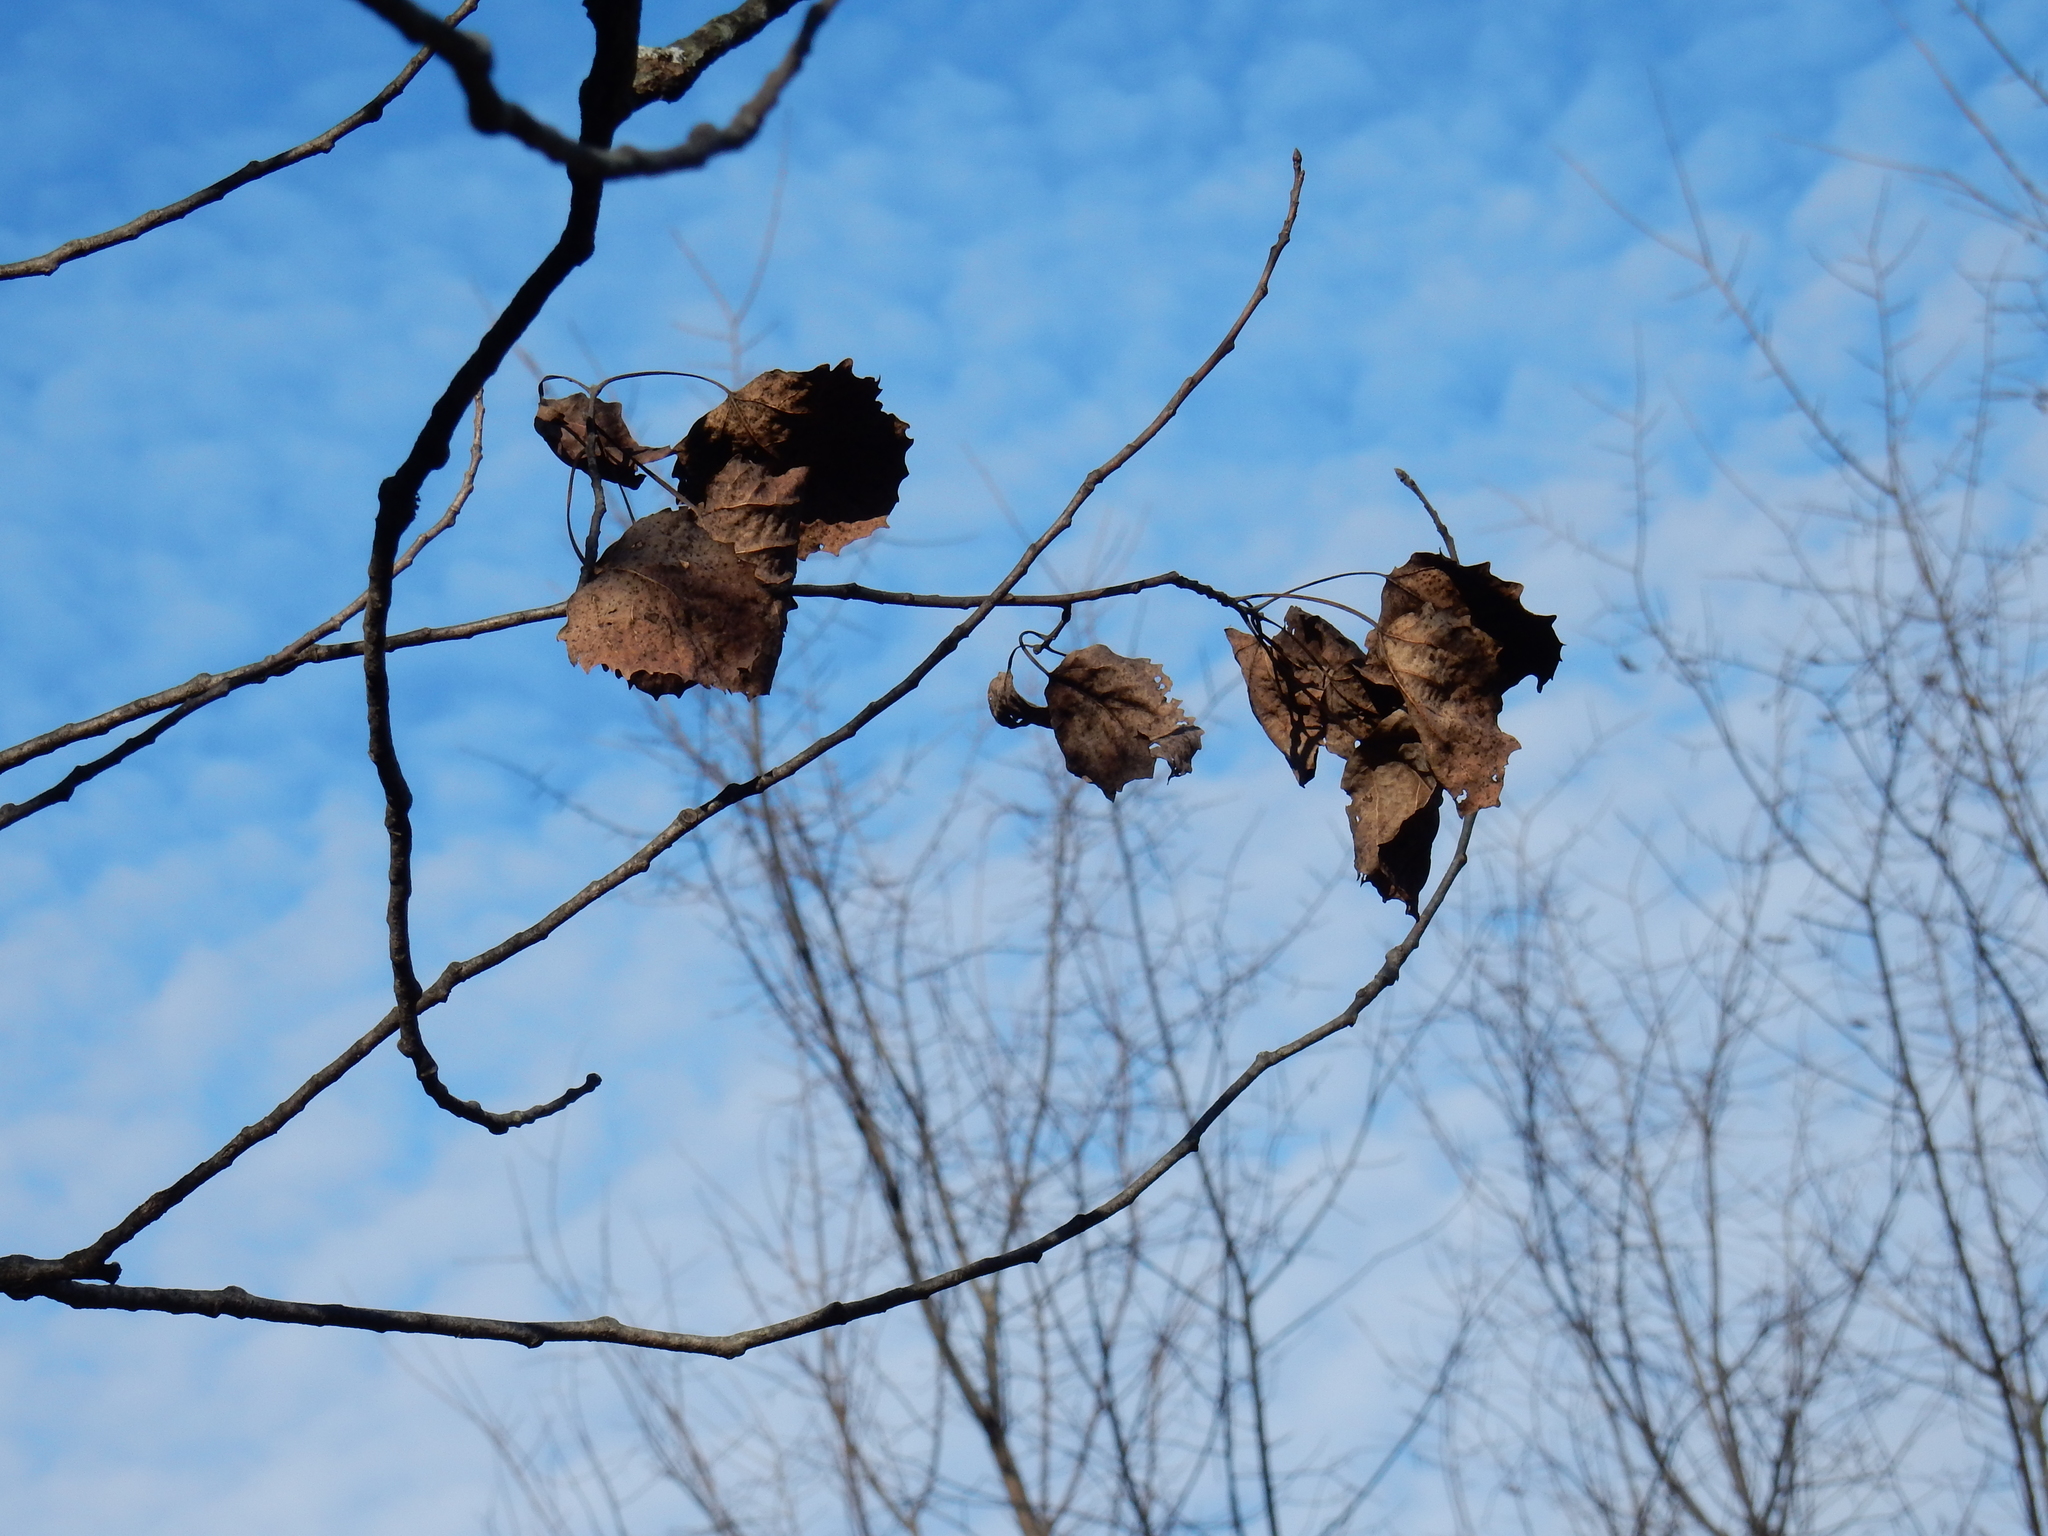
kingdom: Plantae
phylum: Tracheophyta
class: Magnoliopsida
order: Malpighiales
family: Salicaceae
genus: Populus
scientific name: Populus grandidentata
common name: Bigtooth aspen
